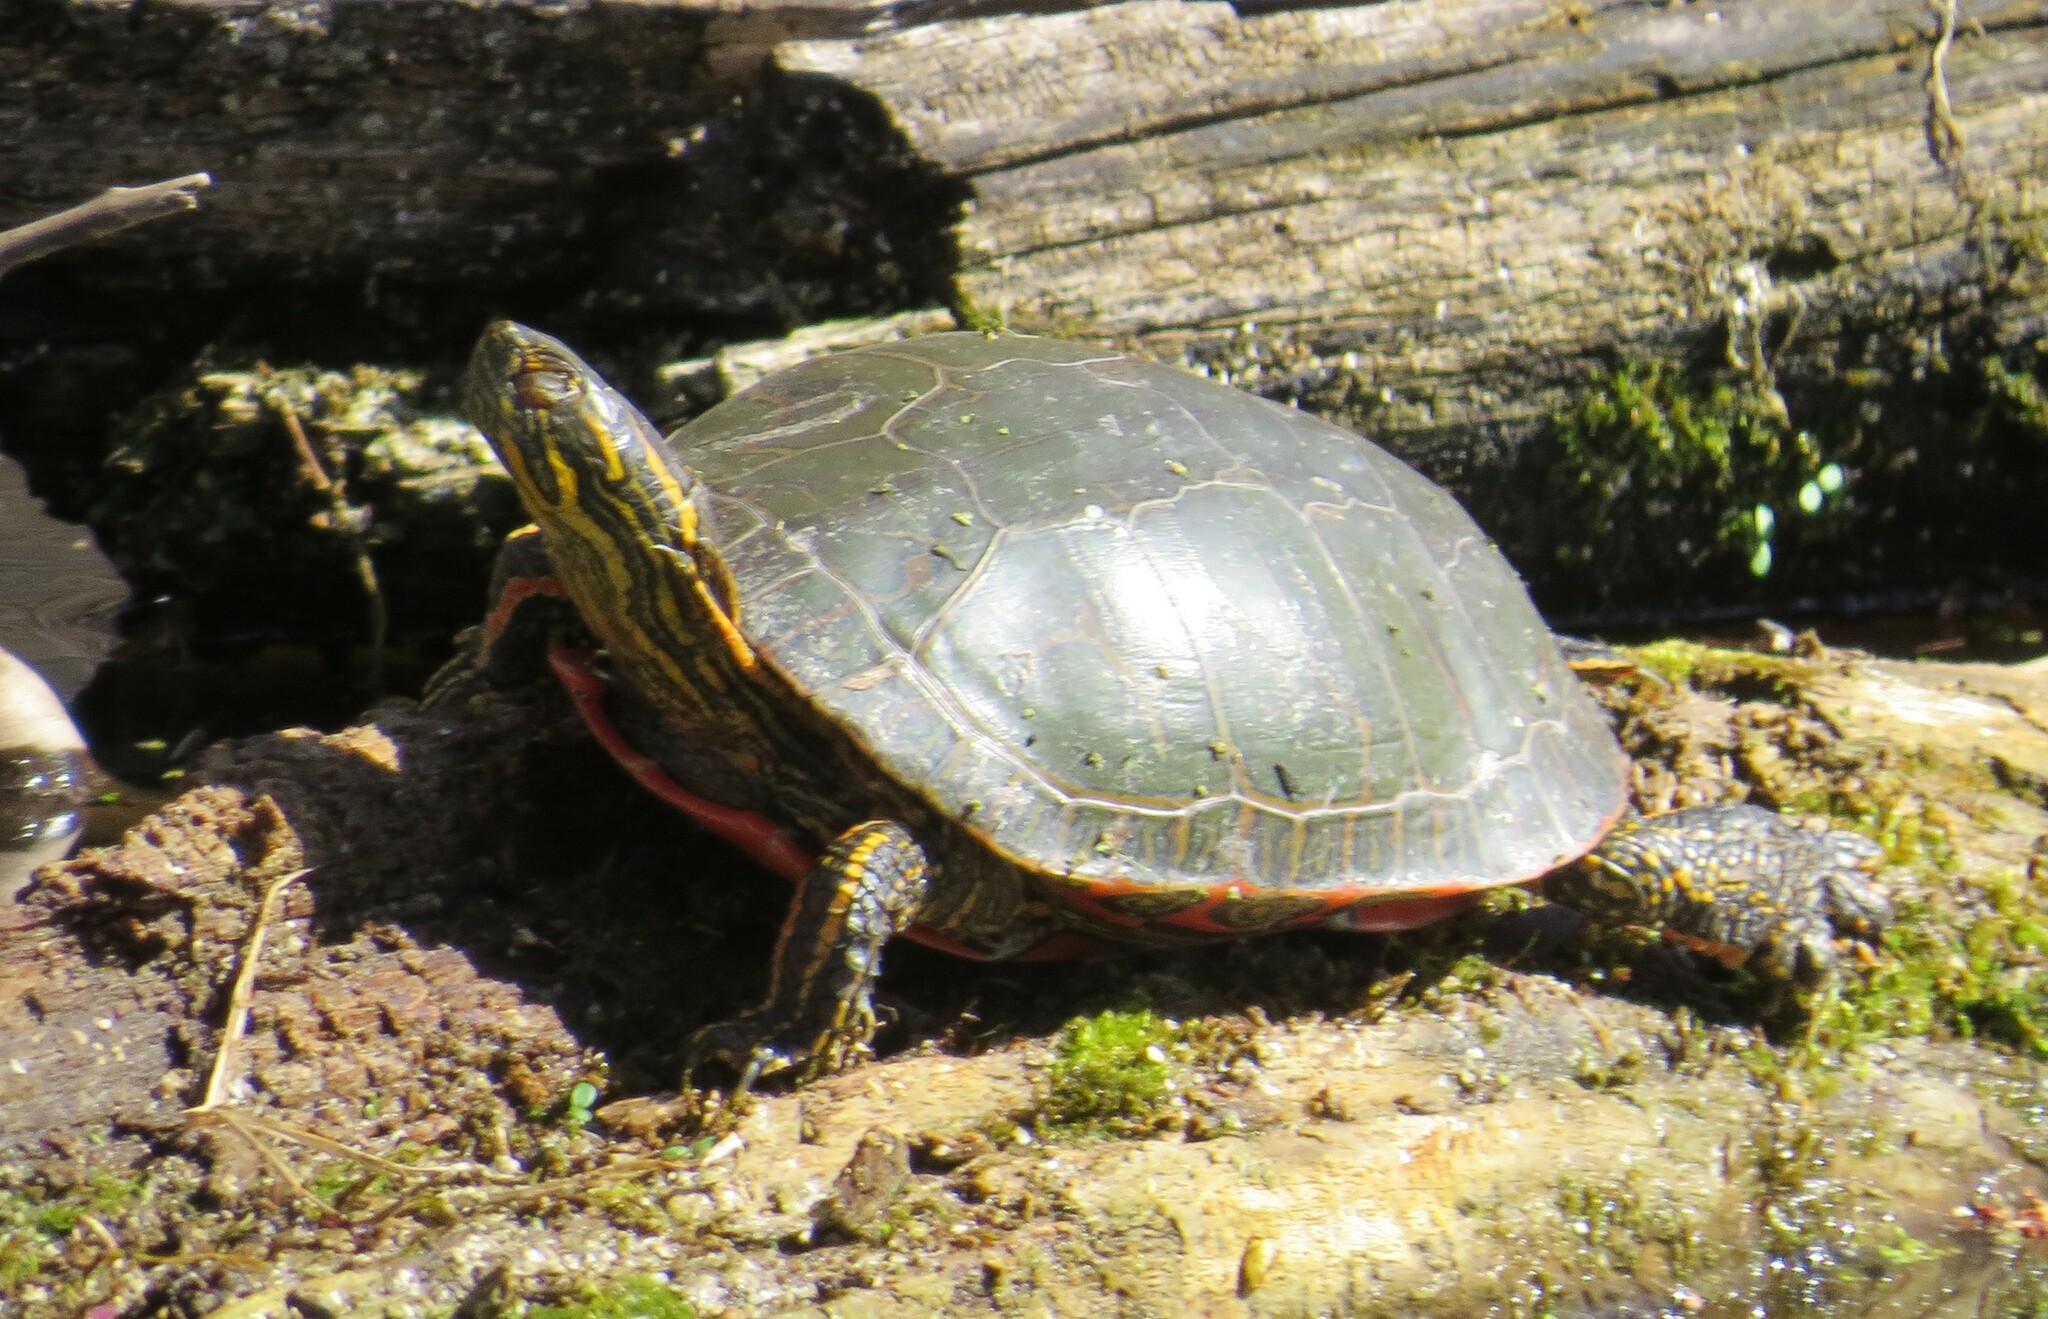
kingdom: Animalia
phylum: Chordata
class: Testudines
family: Emydidae
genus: Chrysemys
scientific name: Chrysemys picta
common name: Painted turtle
